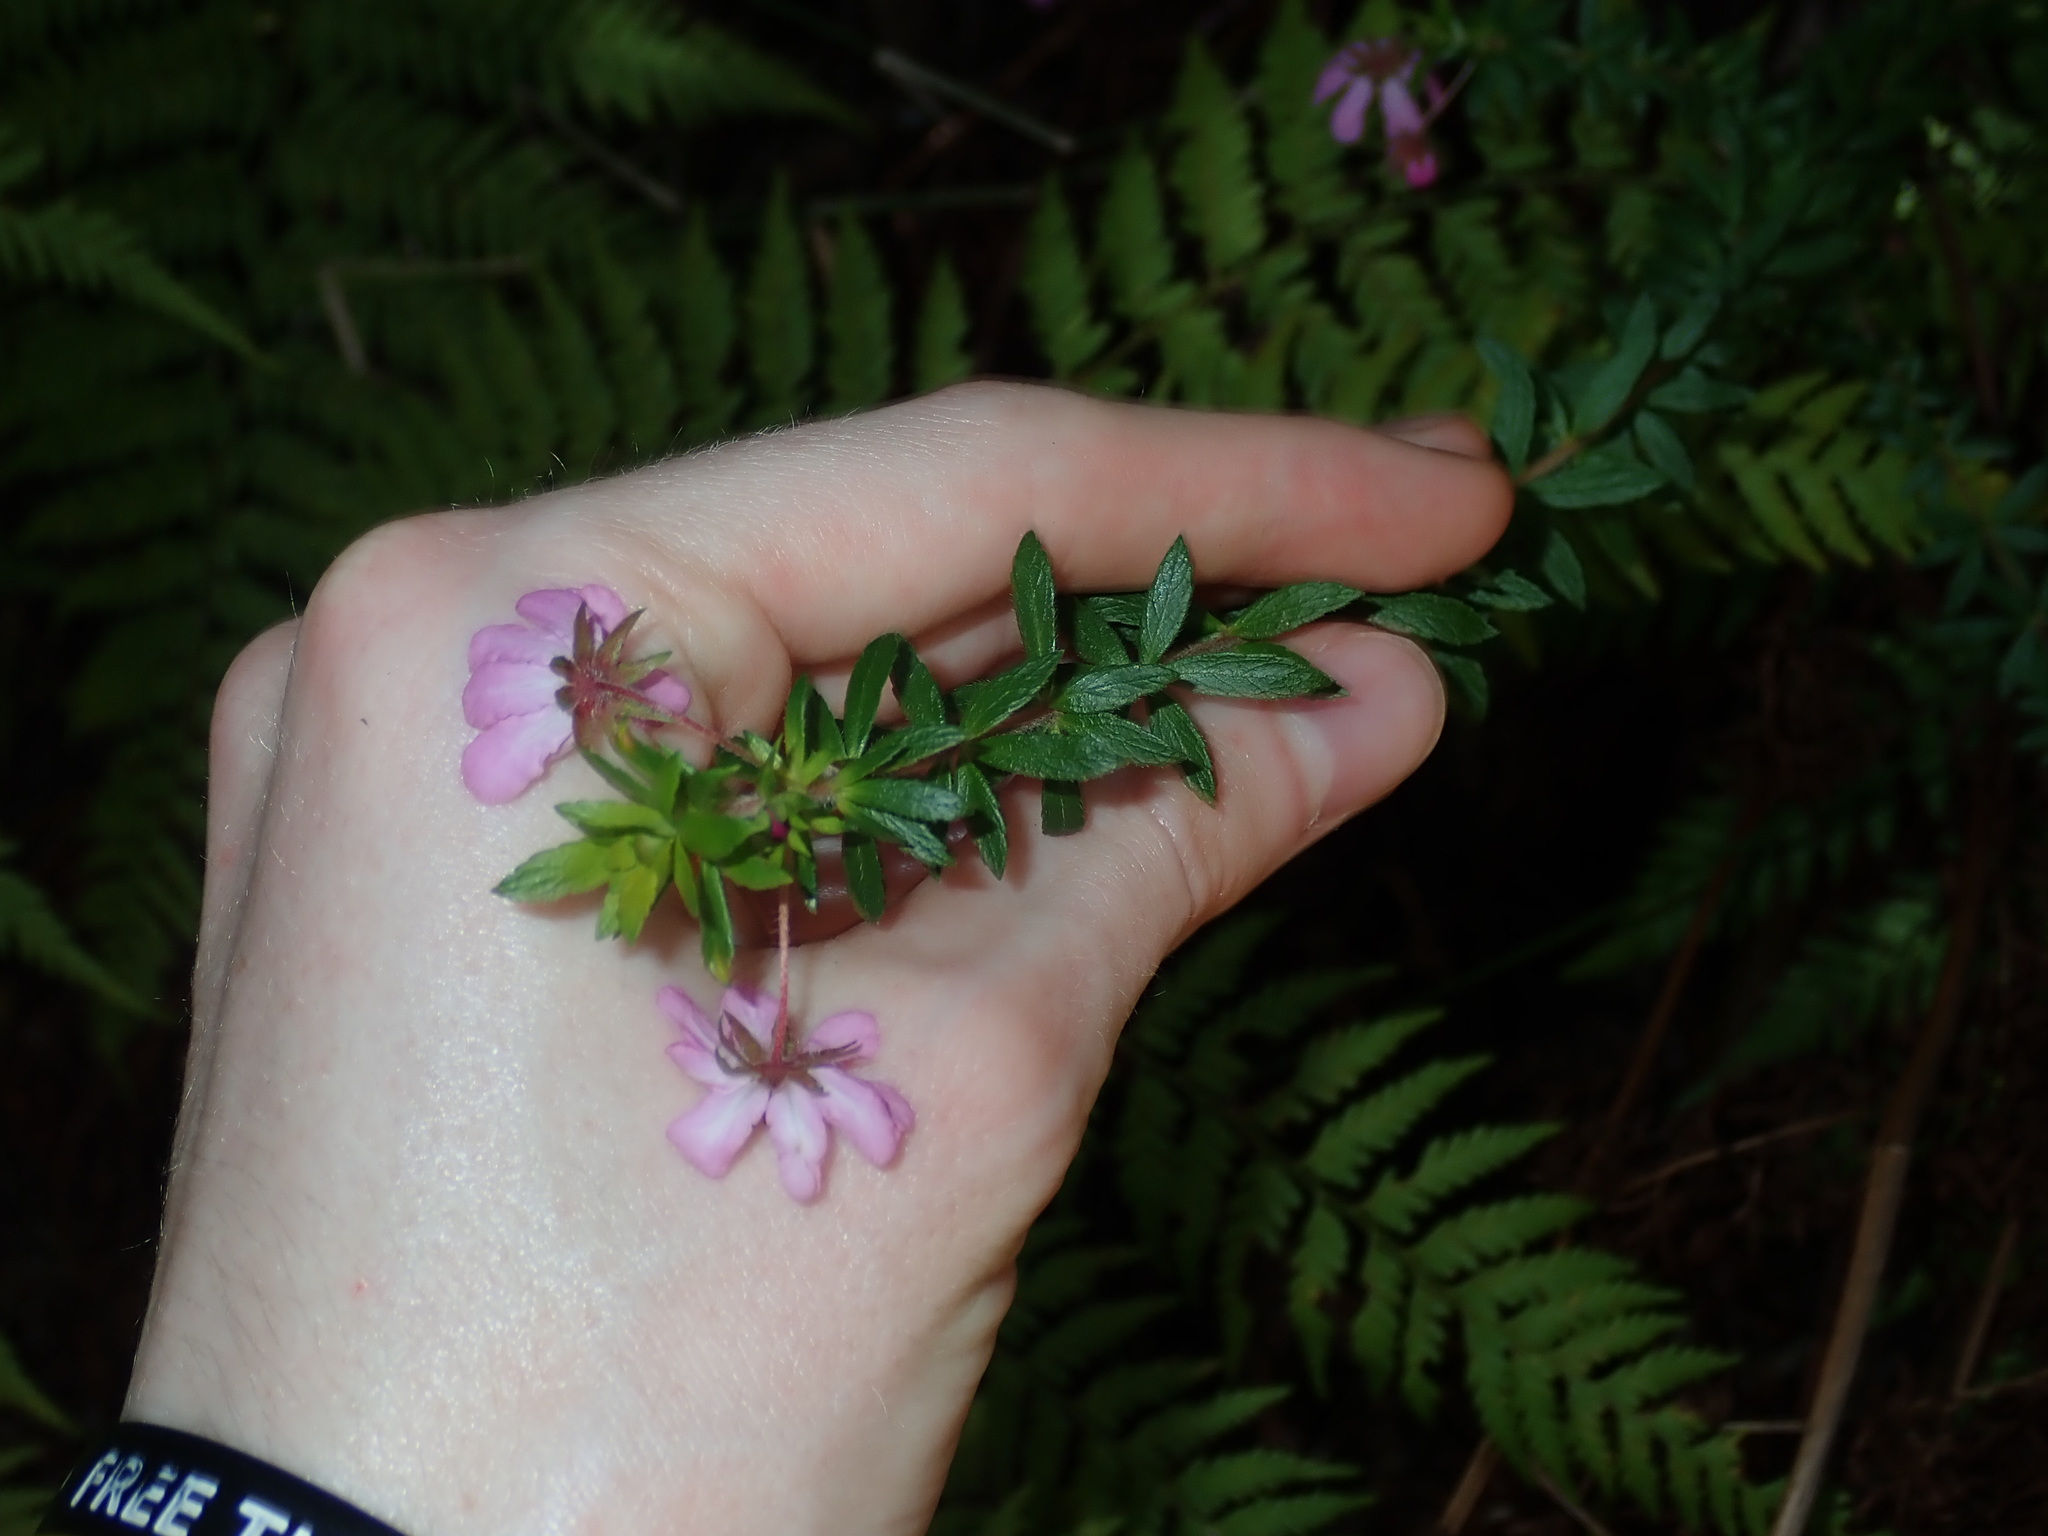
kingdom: Plantae
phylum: Tracheophyta
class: Magnoliopsida
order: Oxalidales
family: Cunoniaceae
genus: Bauera
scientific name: Bauera rubioides
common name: River-rose
